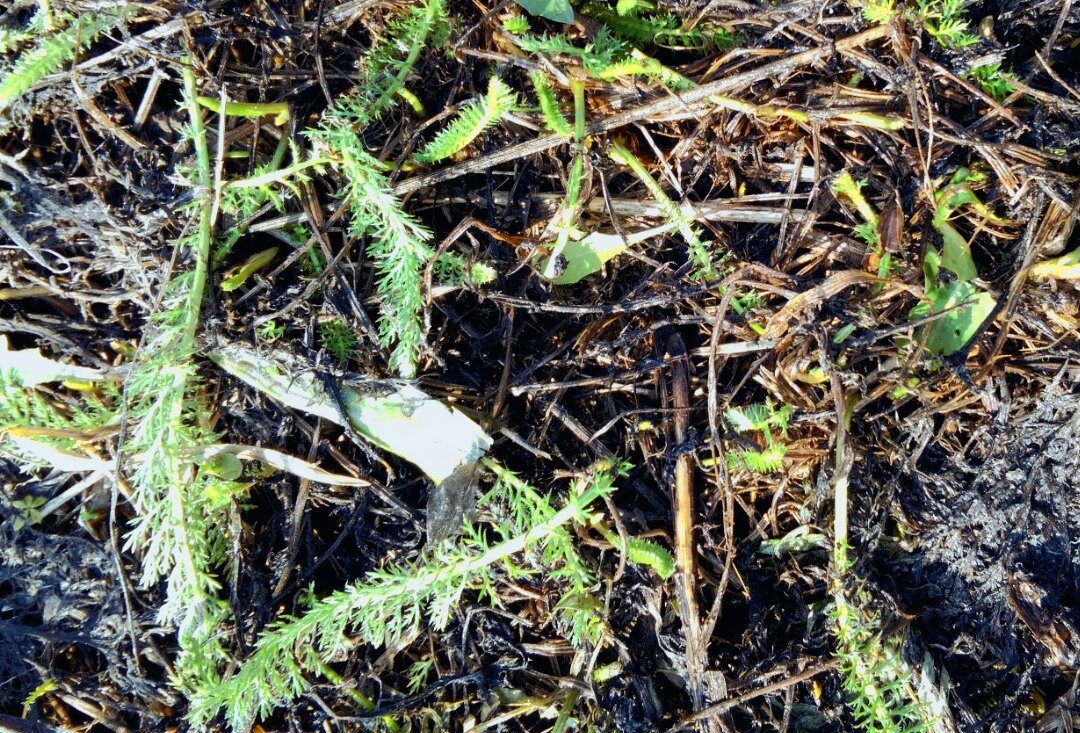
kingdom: Plantae
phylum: Tracheophyta
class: Magnoliopsida
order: Asterales
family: Asteraceae
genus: Achillea
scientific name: Achillea millefolium
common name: Yarrow
